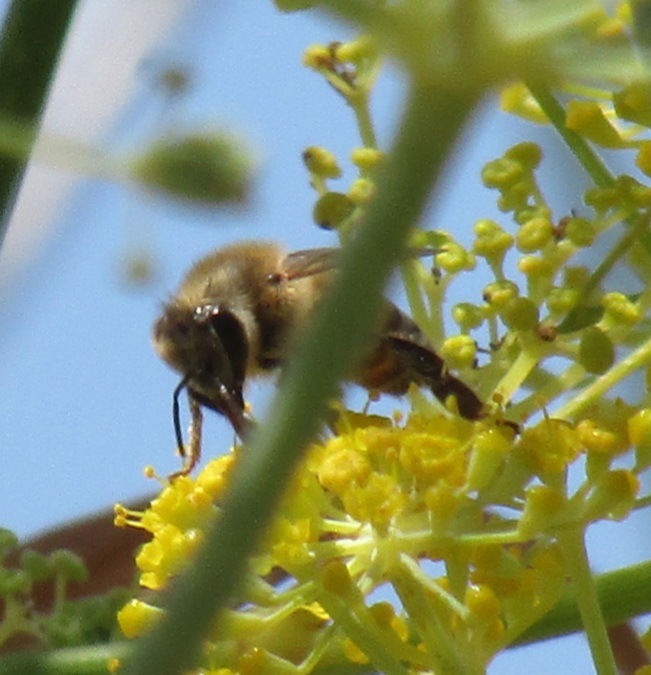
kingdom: Animalia
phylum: Arthropoda
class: Insecta
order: Hymenoptera
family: Apidae
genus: Apis
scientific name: Apis mellifera
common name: Honey bee
